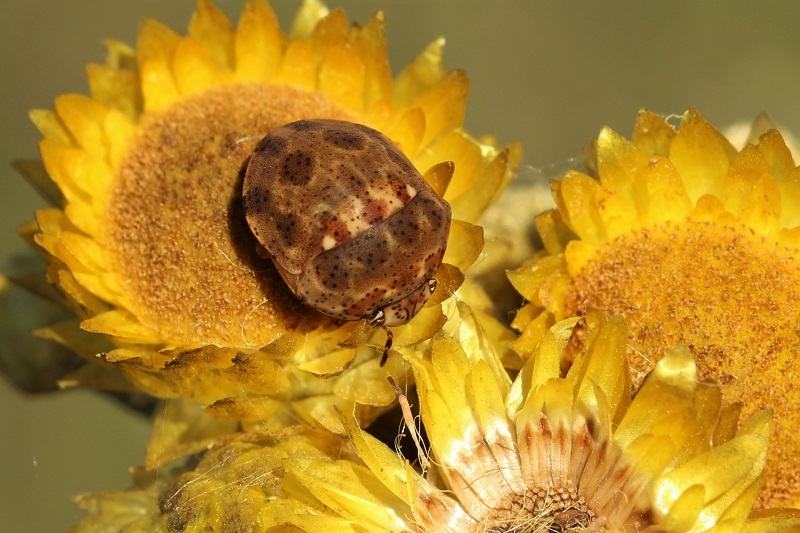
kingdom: Animalia
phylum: Arthropoda
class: Insecta
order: Hemiptera
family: Scutelleridae
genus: Sphaerocoris
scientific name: Sphaerocoris
